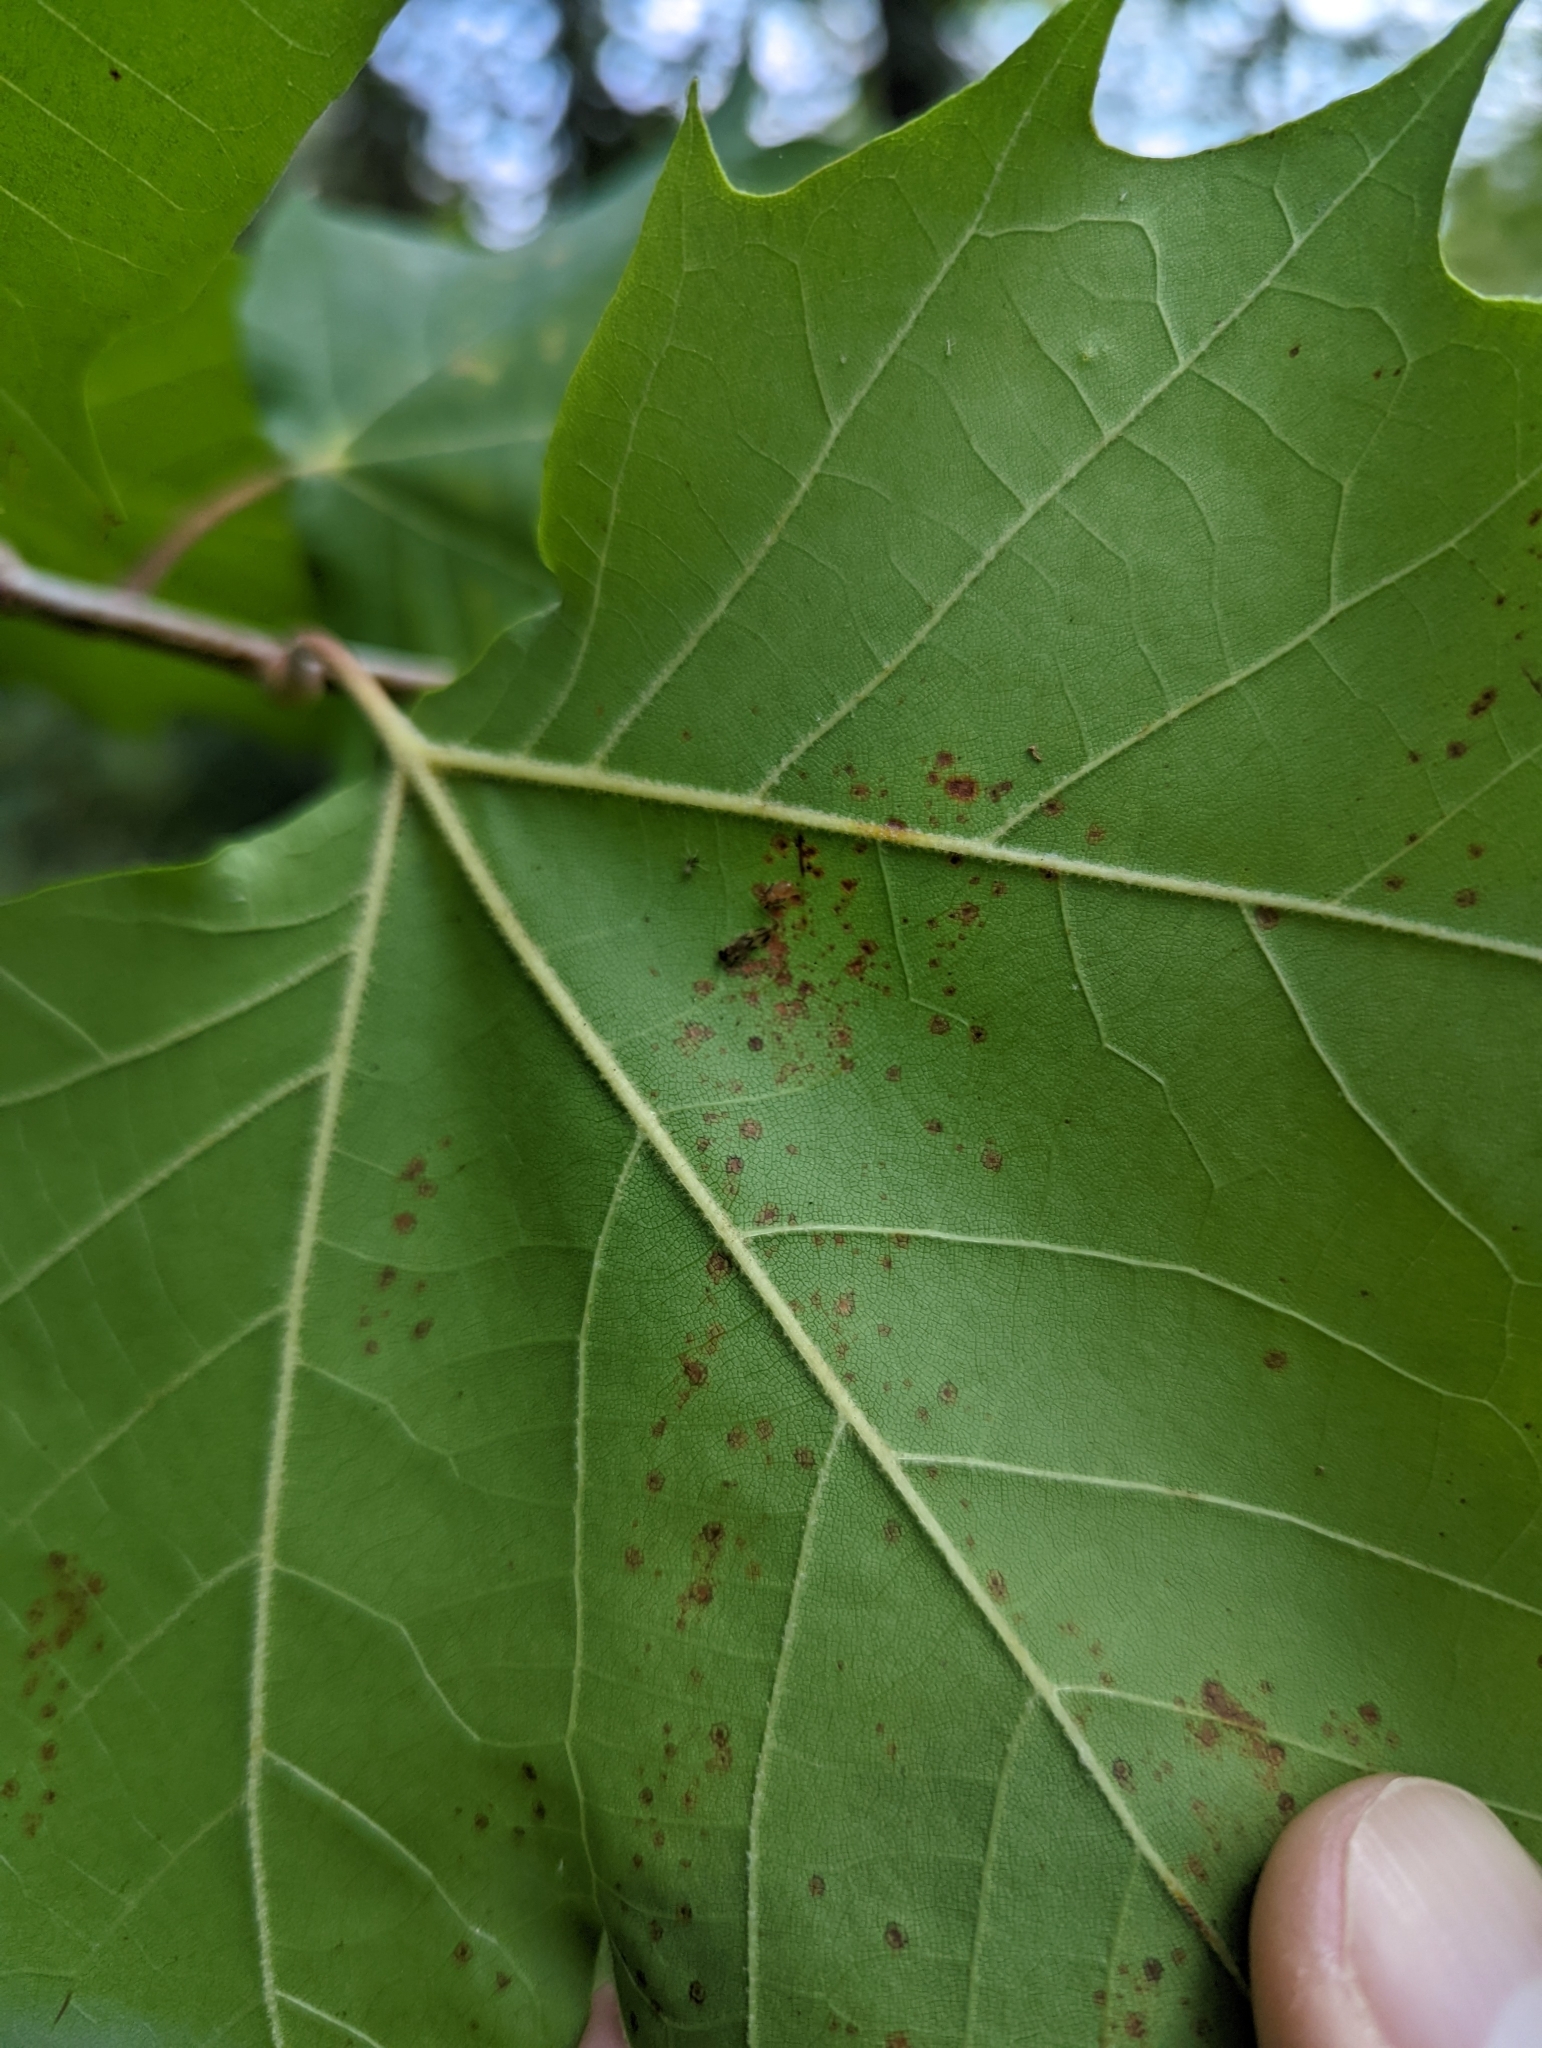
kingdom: Animalia
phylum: Arthropoda
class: Insecta
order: Psocodea
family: Amphipsocidae
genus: Polypsocus
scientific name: Polypsocus corruptus
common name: Corrupt barklouse
